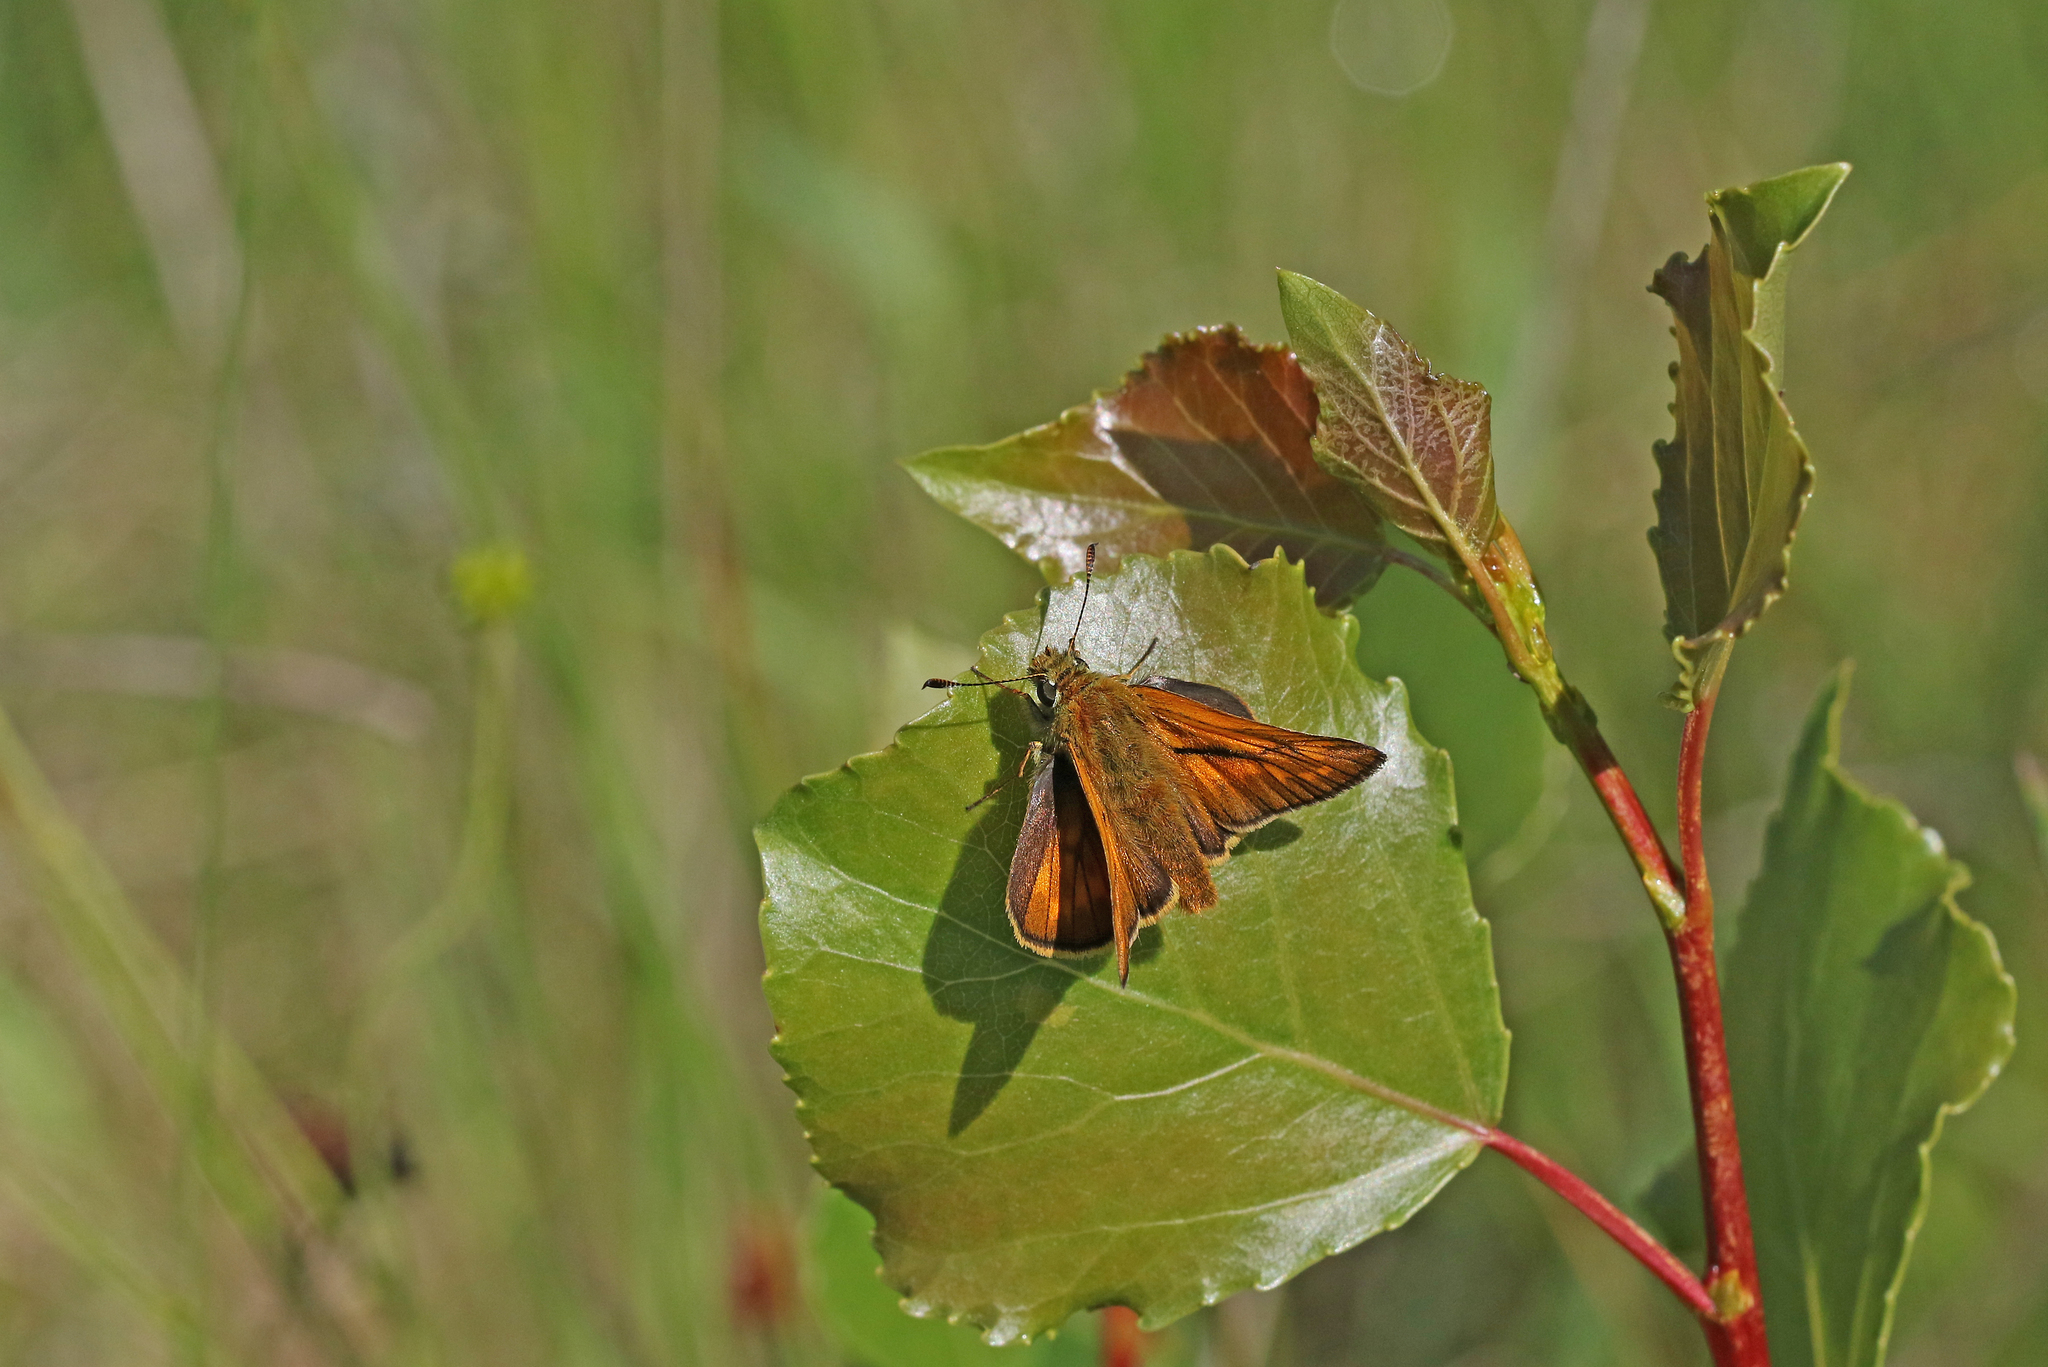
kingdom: Animalia
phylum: Arthropoda
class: Insecta
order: Lepidoptera
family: Hesperiidae
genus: Ochlodes
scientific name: Ochlodes venata
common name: Large skipper
